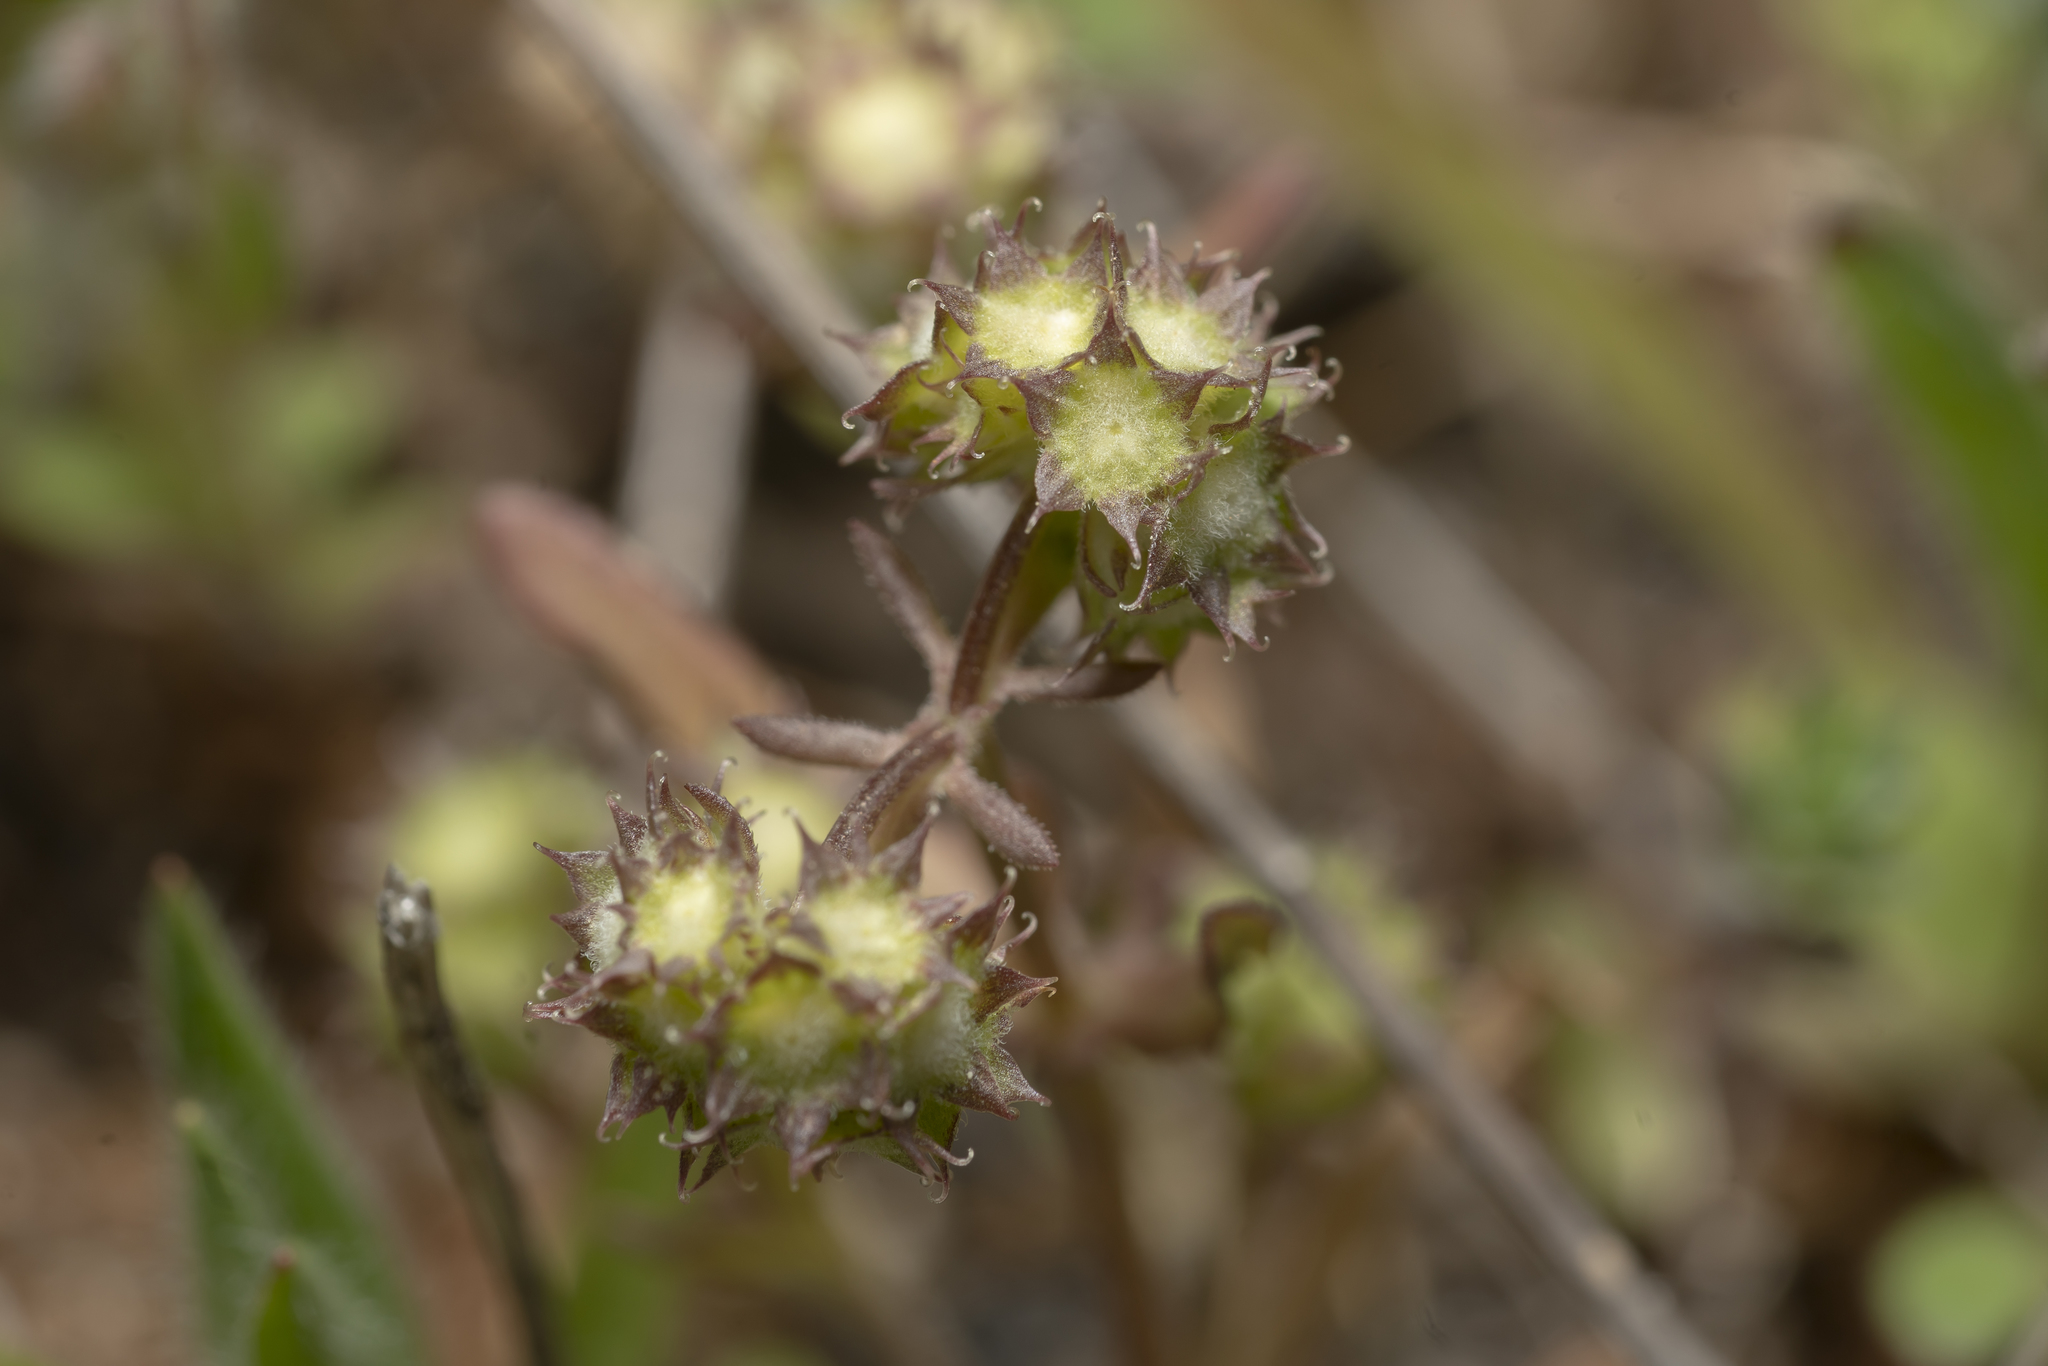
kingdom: Plantae
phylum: Tracheophyta
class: Magnoliopsida
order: Dipsacales
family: Caprifoliaceae
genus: Valerianella
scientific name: Valerianella discoidea
